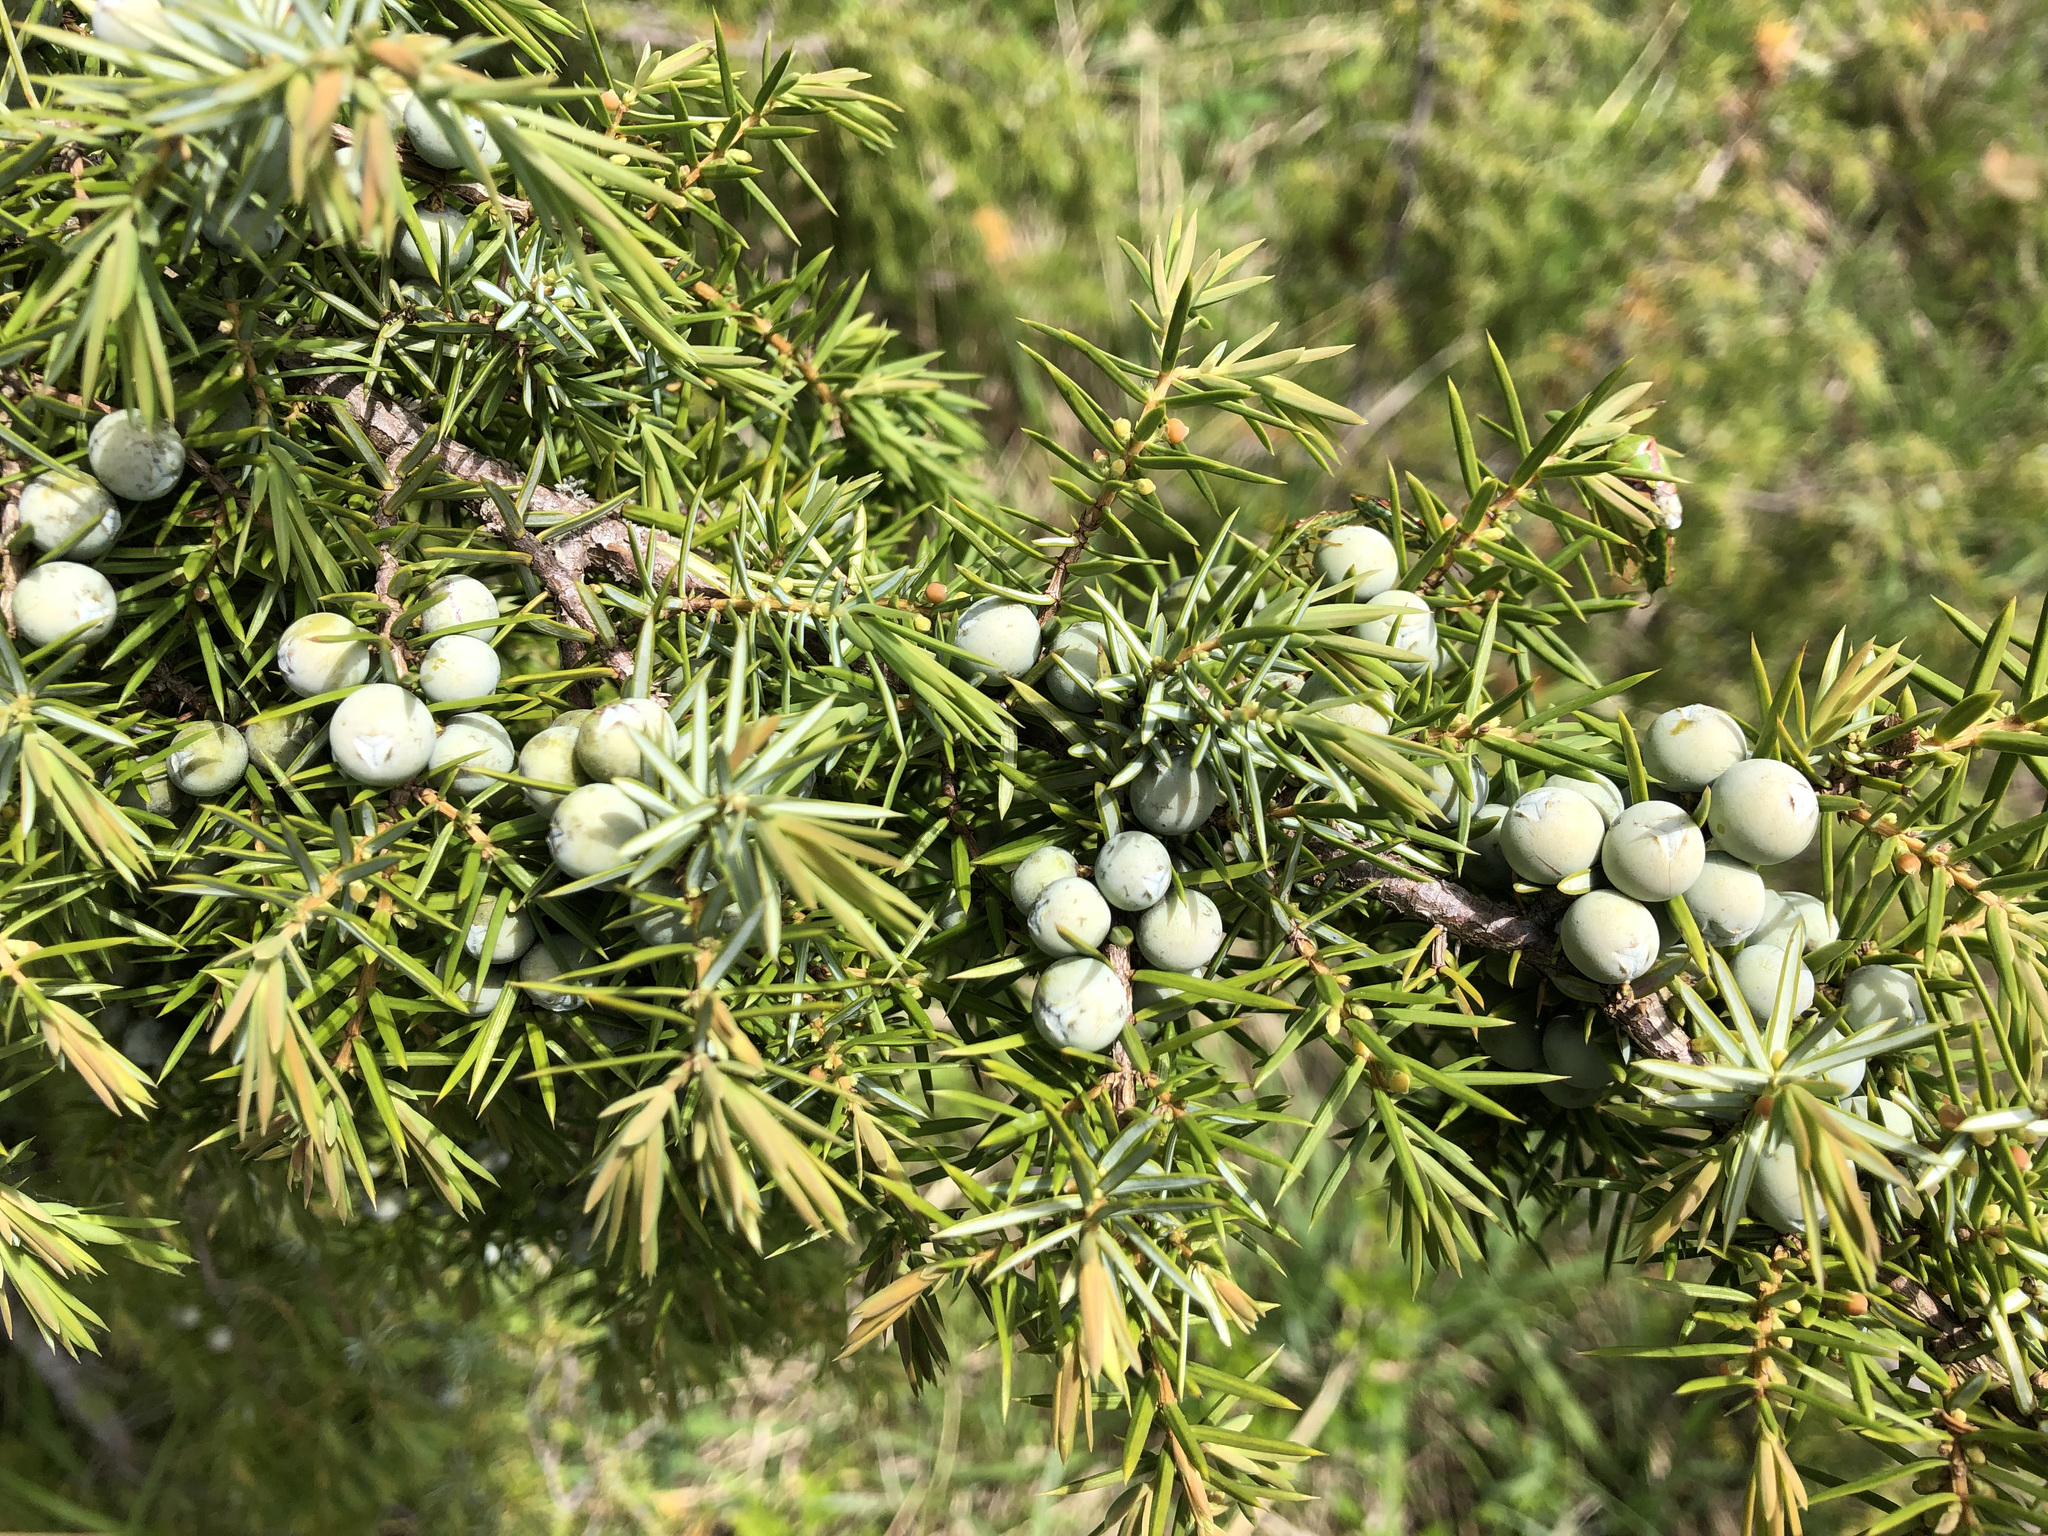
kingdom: Plantae
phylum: Tracheophyta
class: Pinopsida
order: Pinales
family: Cupressaceae
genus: Juniperus
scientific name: Juniperus communis
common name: Common juniper
